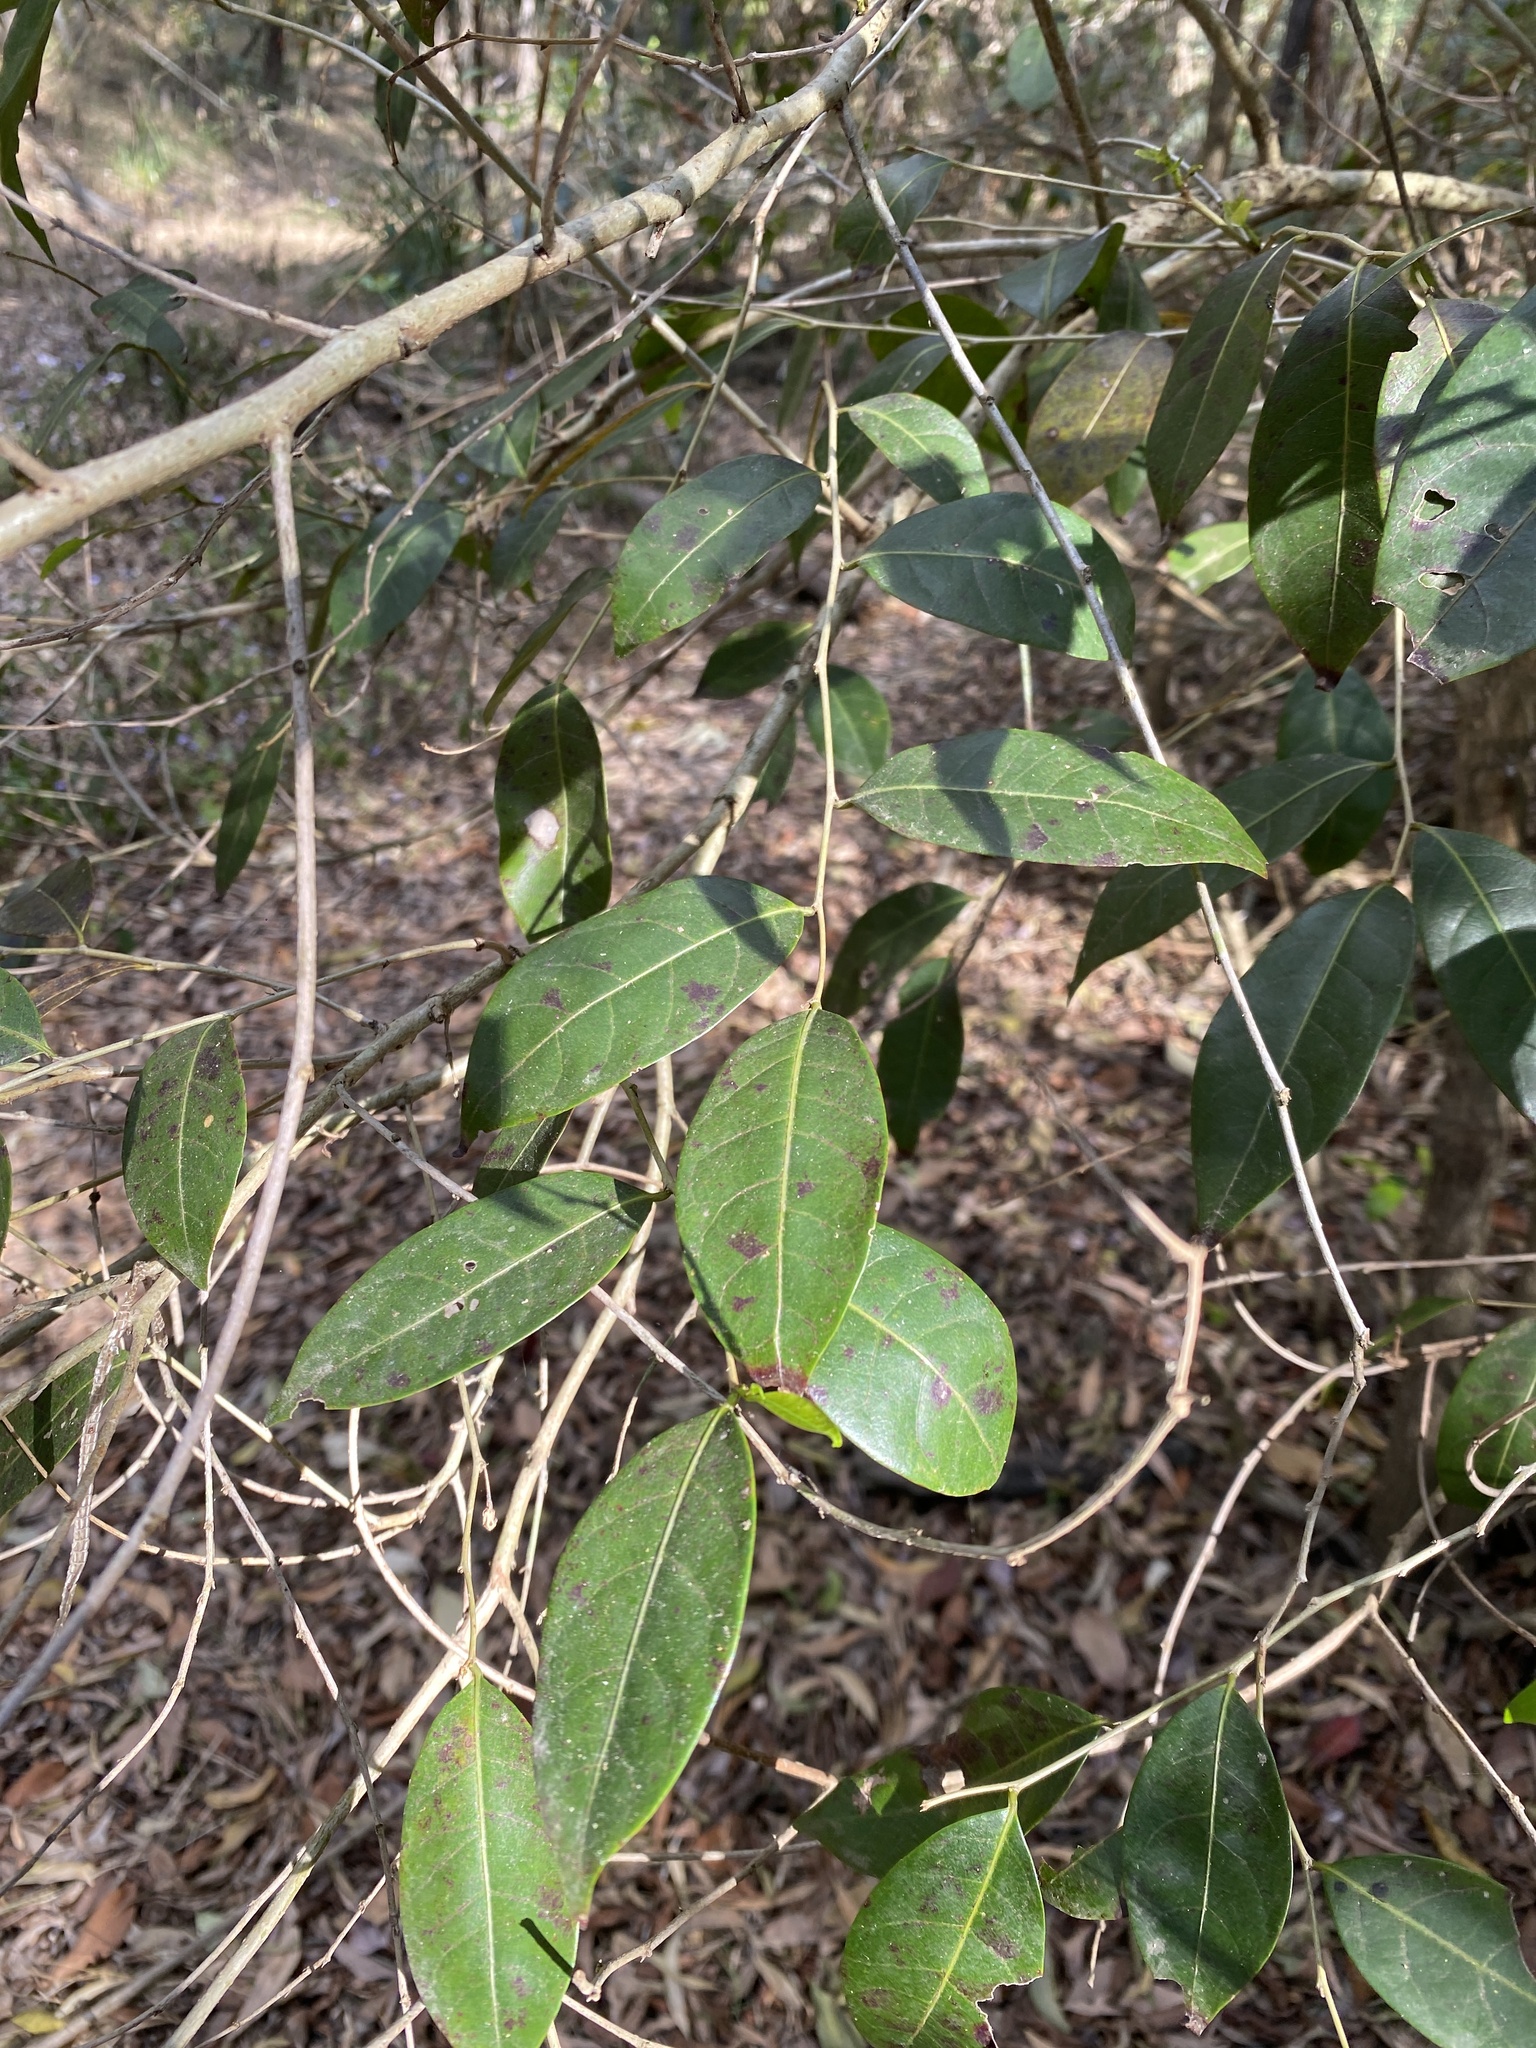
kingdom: Plantae
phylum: Tracheophyta
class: Magnoliopsida
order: Malpighiales
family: Phyllanthaceae
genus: Glochidion
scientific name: Glochidion ferdinandi
